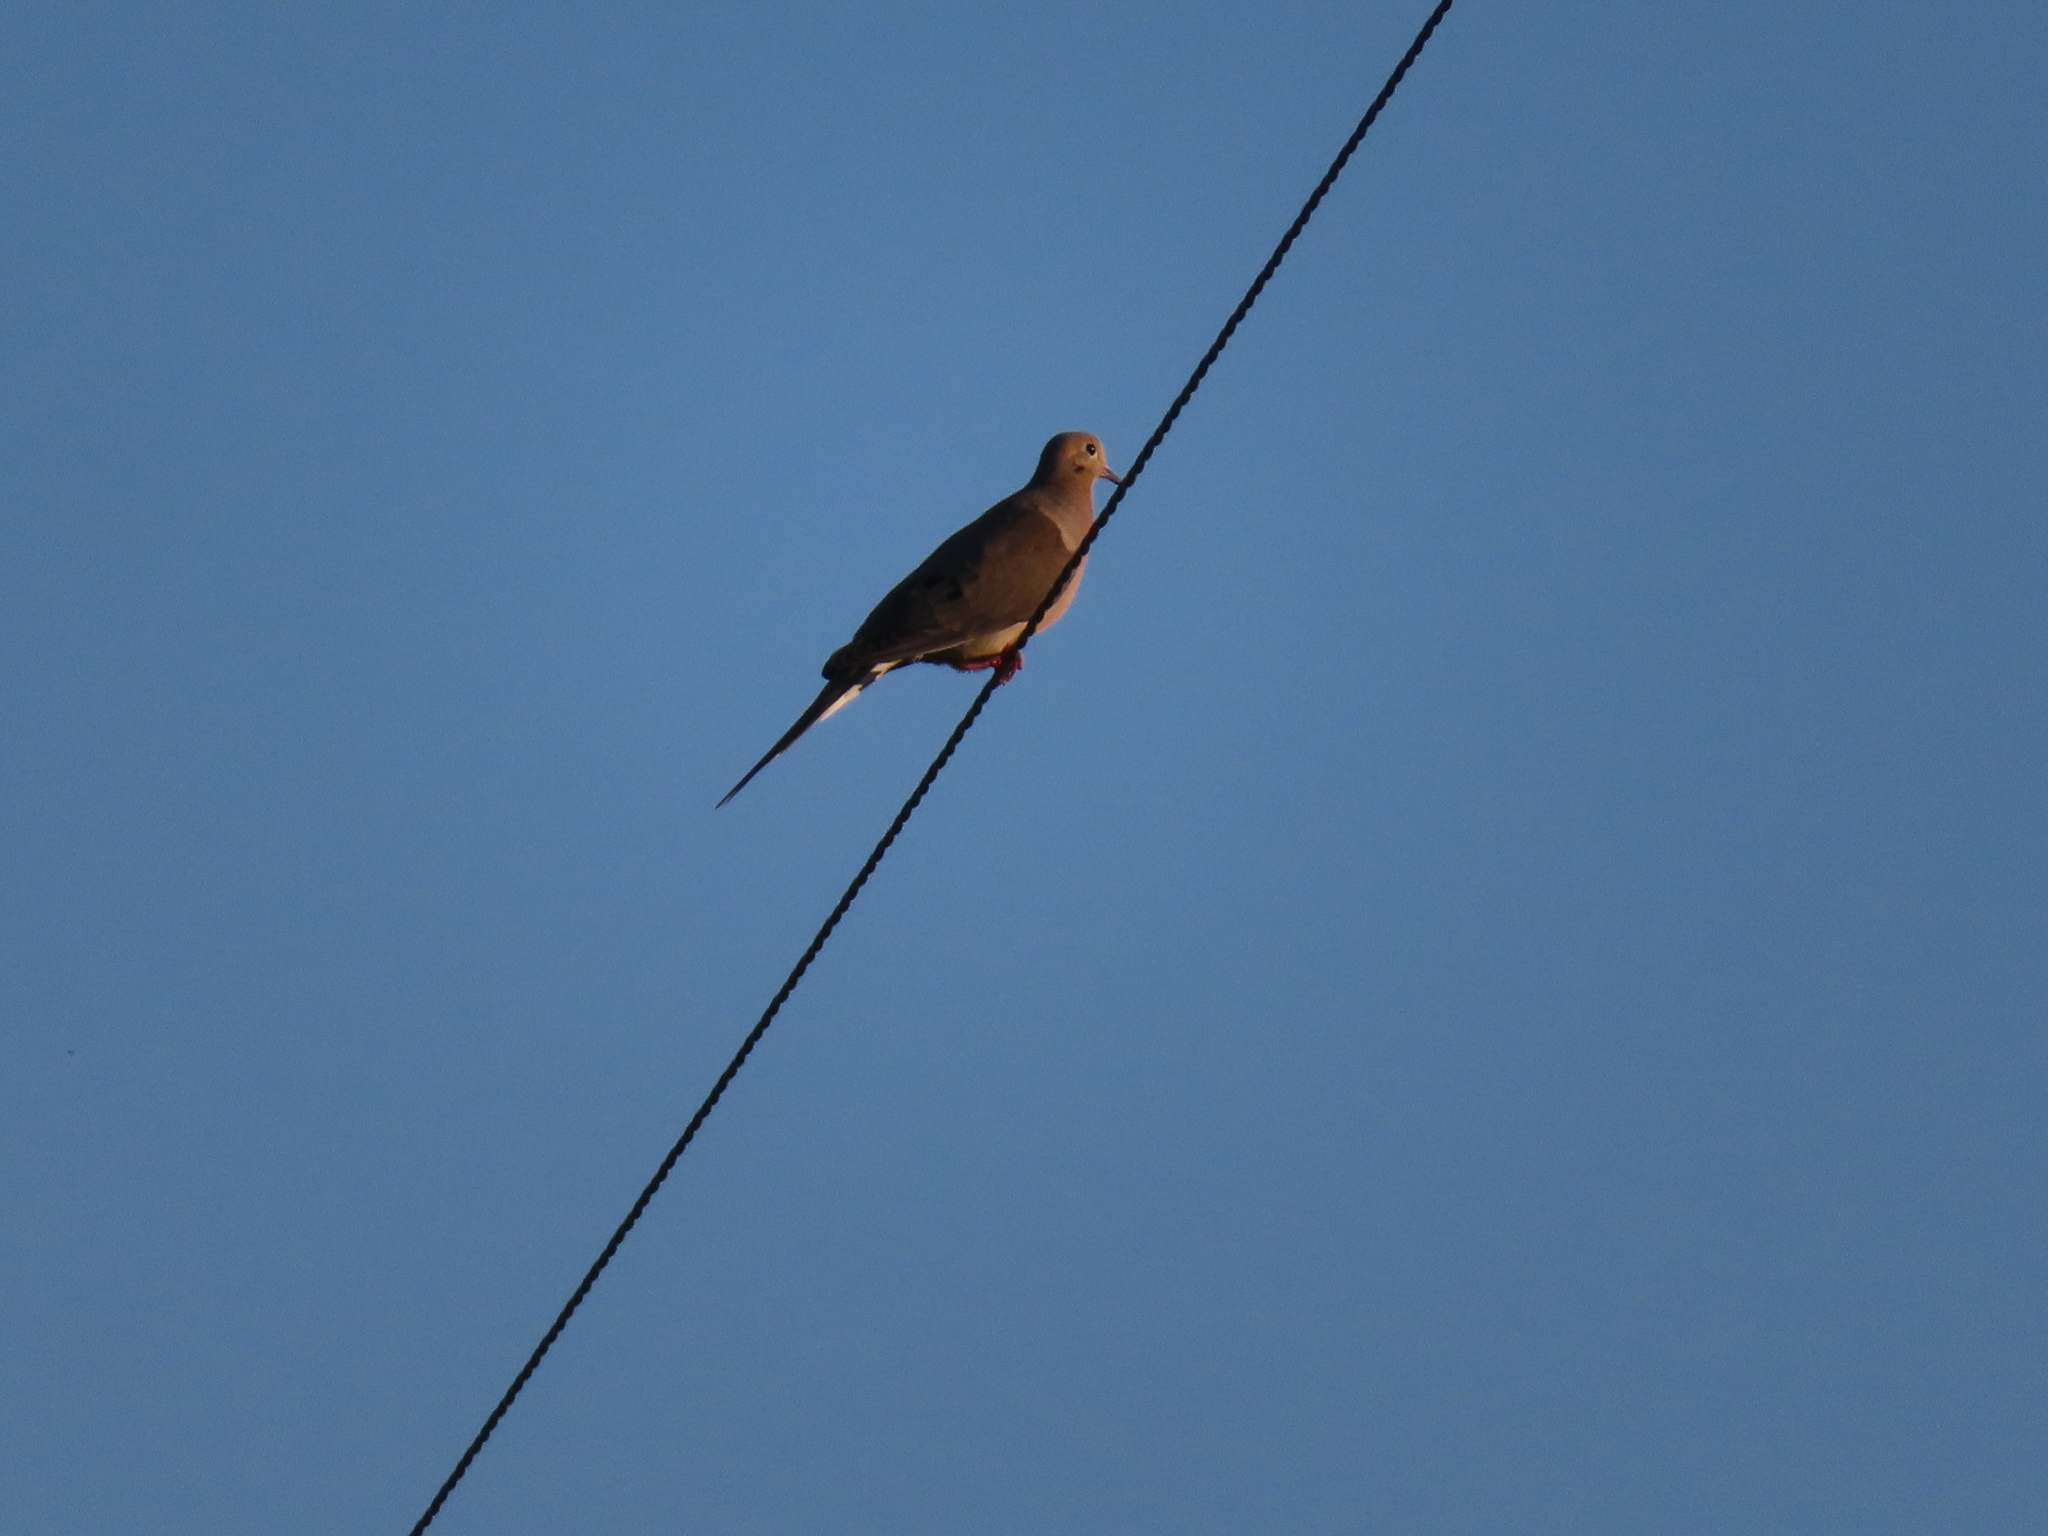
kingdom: Animalia
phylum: Chordata
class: Aves
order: Columbiformes
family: Columbidae
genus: Zenaida
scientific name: Zenaida macroura
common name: Mourning dove
